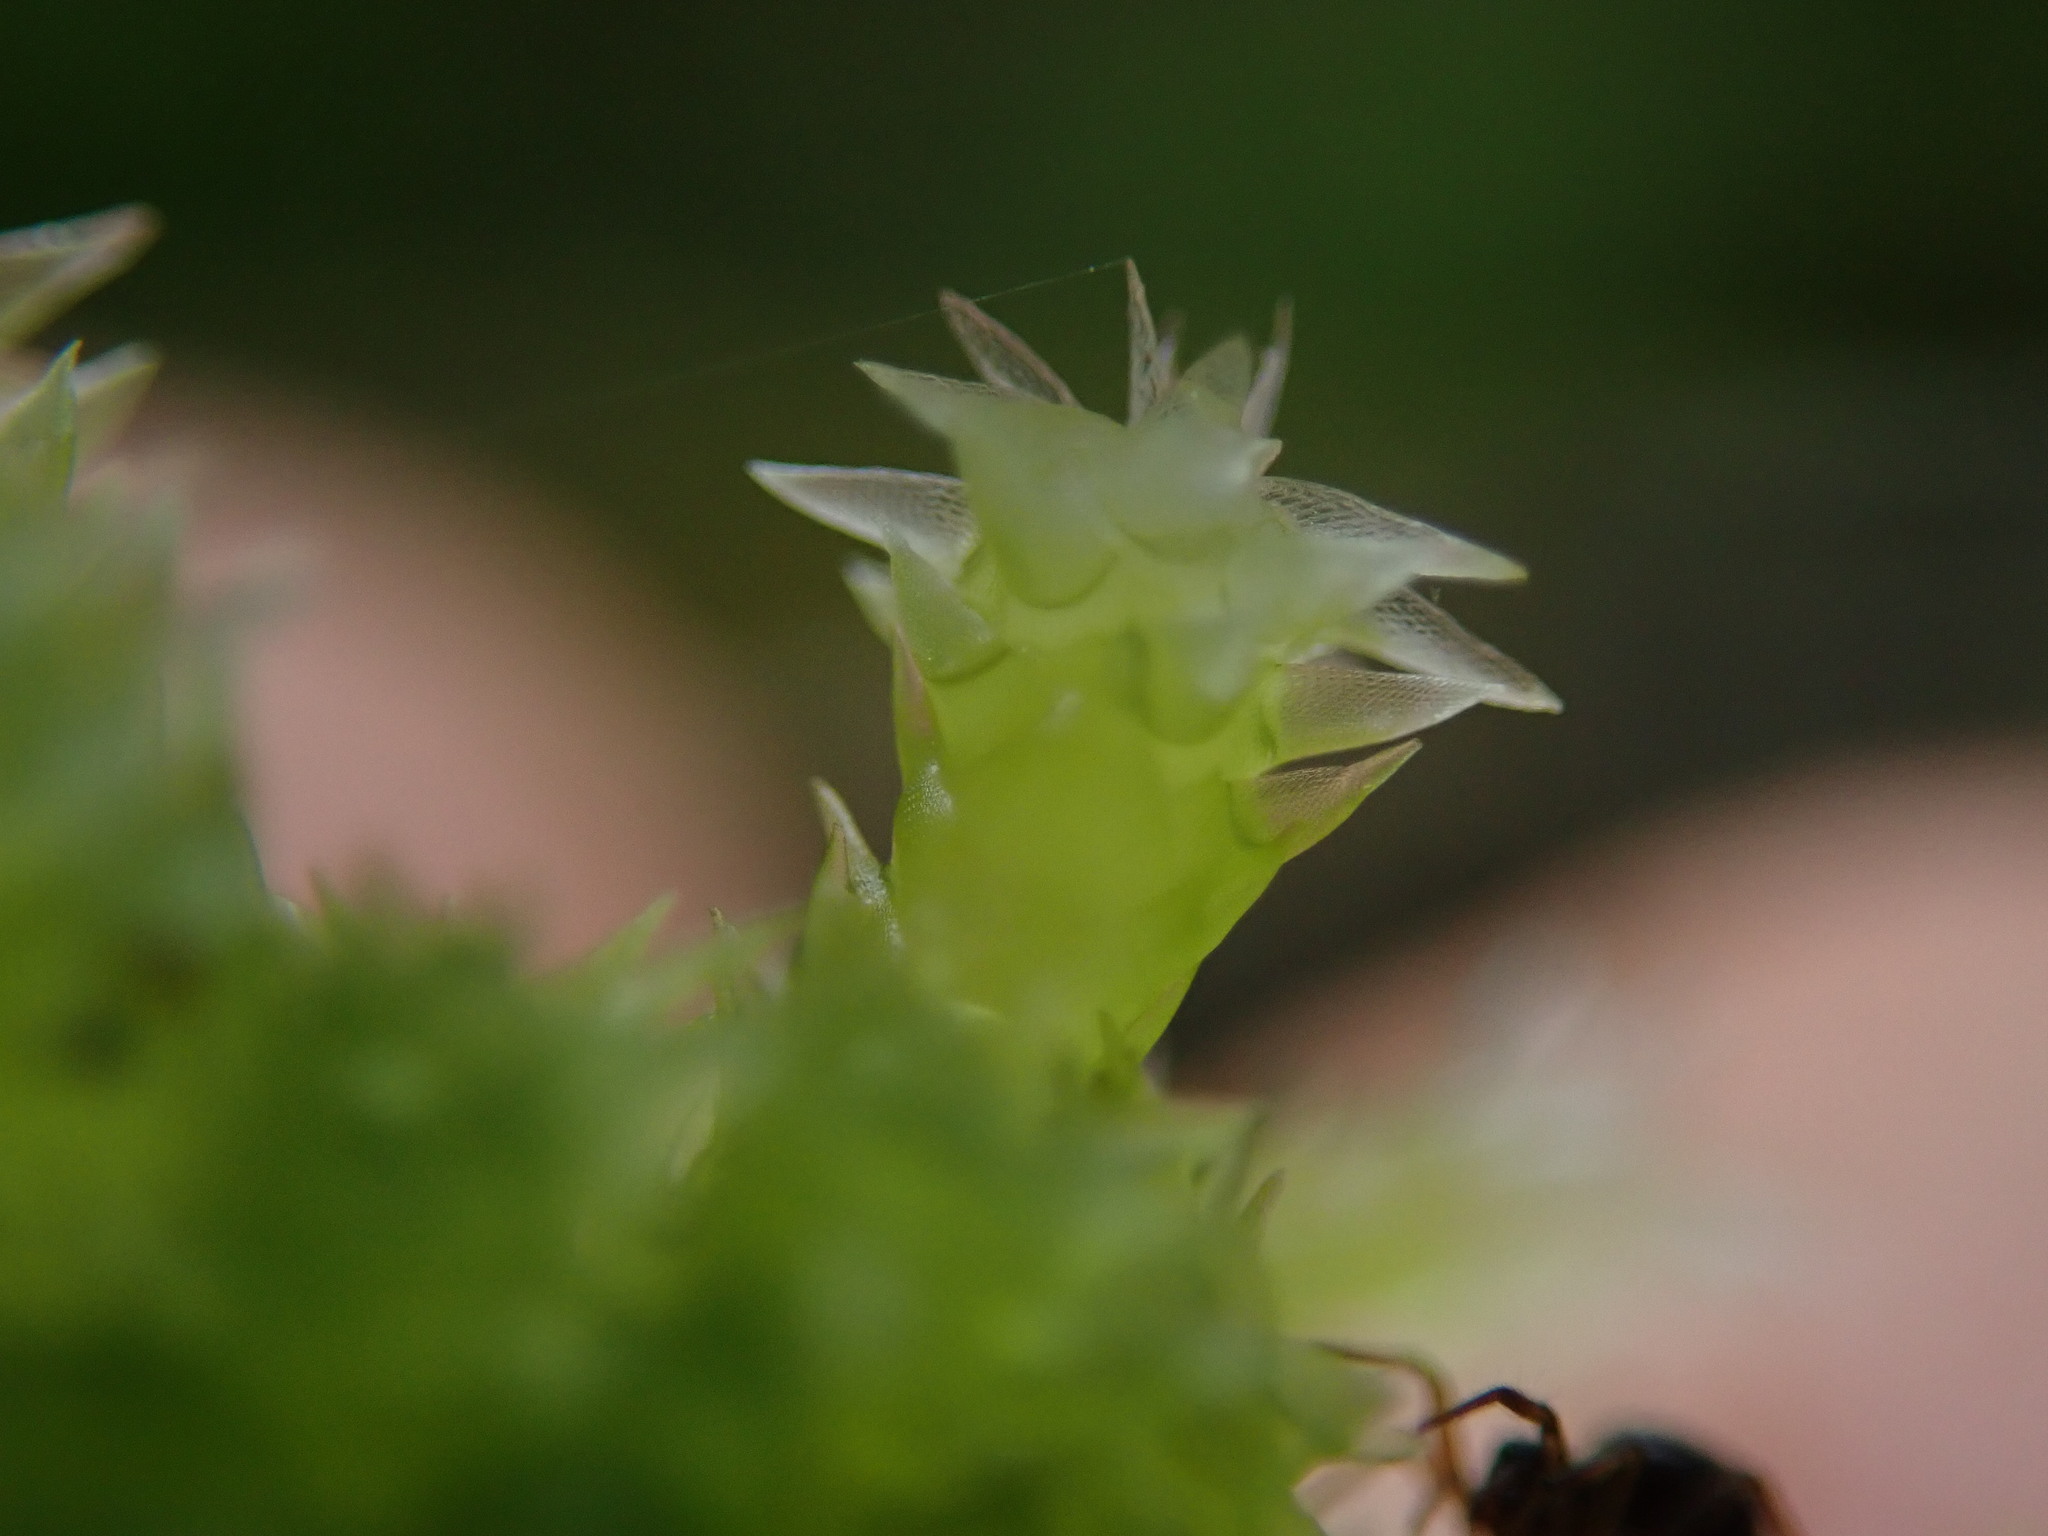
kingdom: Plantae
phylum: Bryophyta
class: Sphagnopsida
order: Sphagnales
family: Sphagnaceae
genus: Sphagnum
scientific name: Sphagnum squarrosum
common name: Shaggy peat moss
